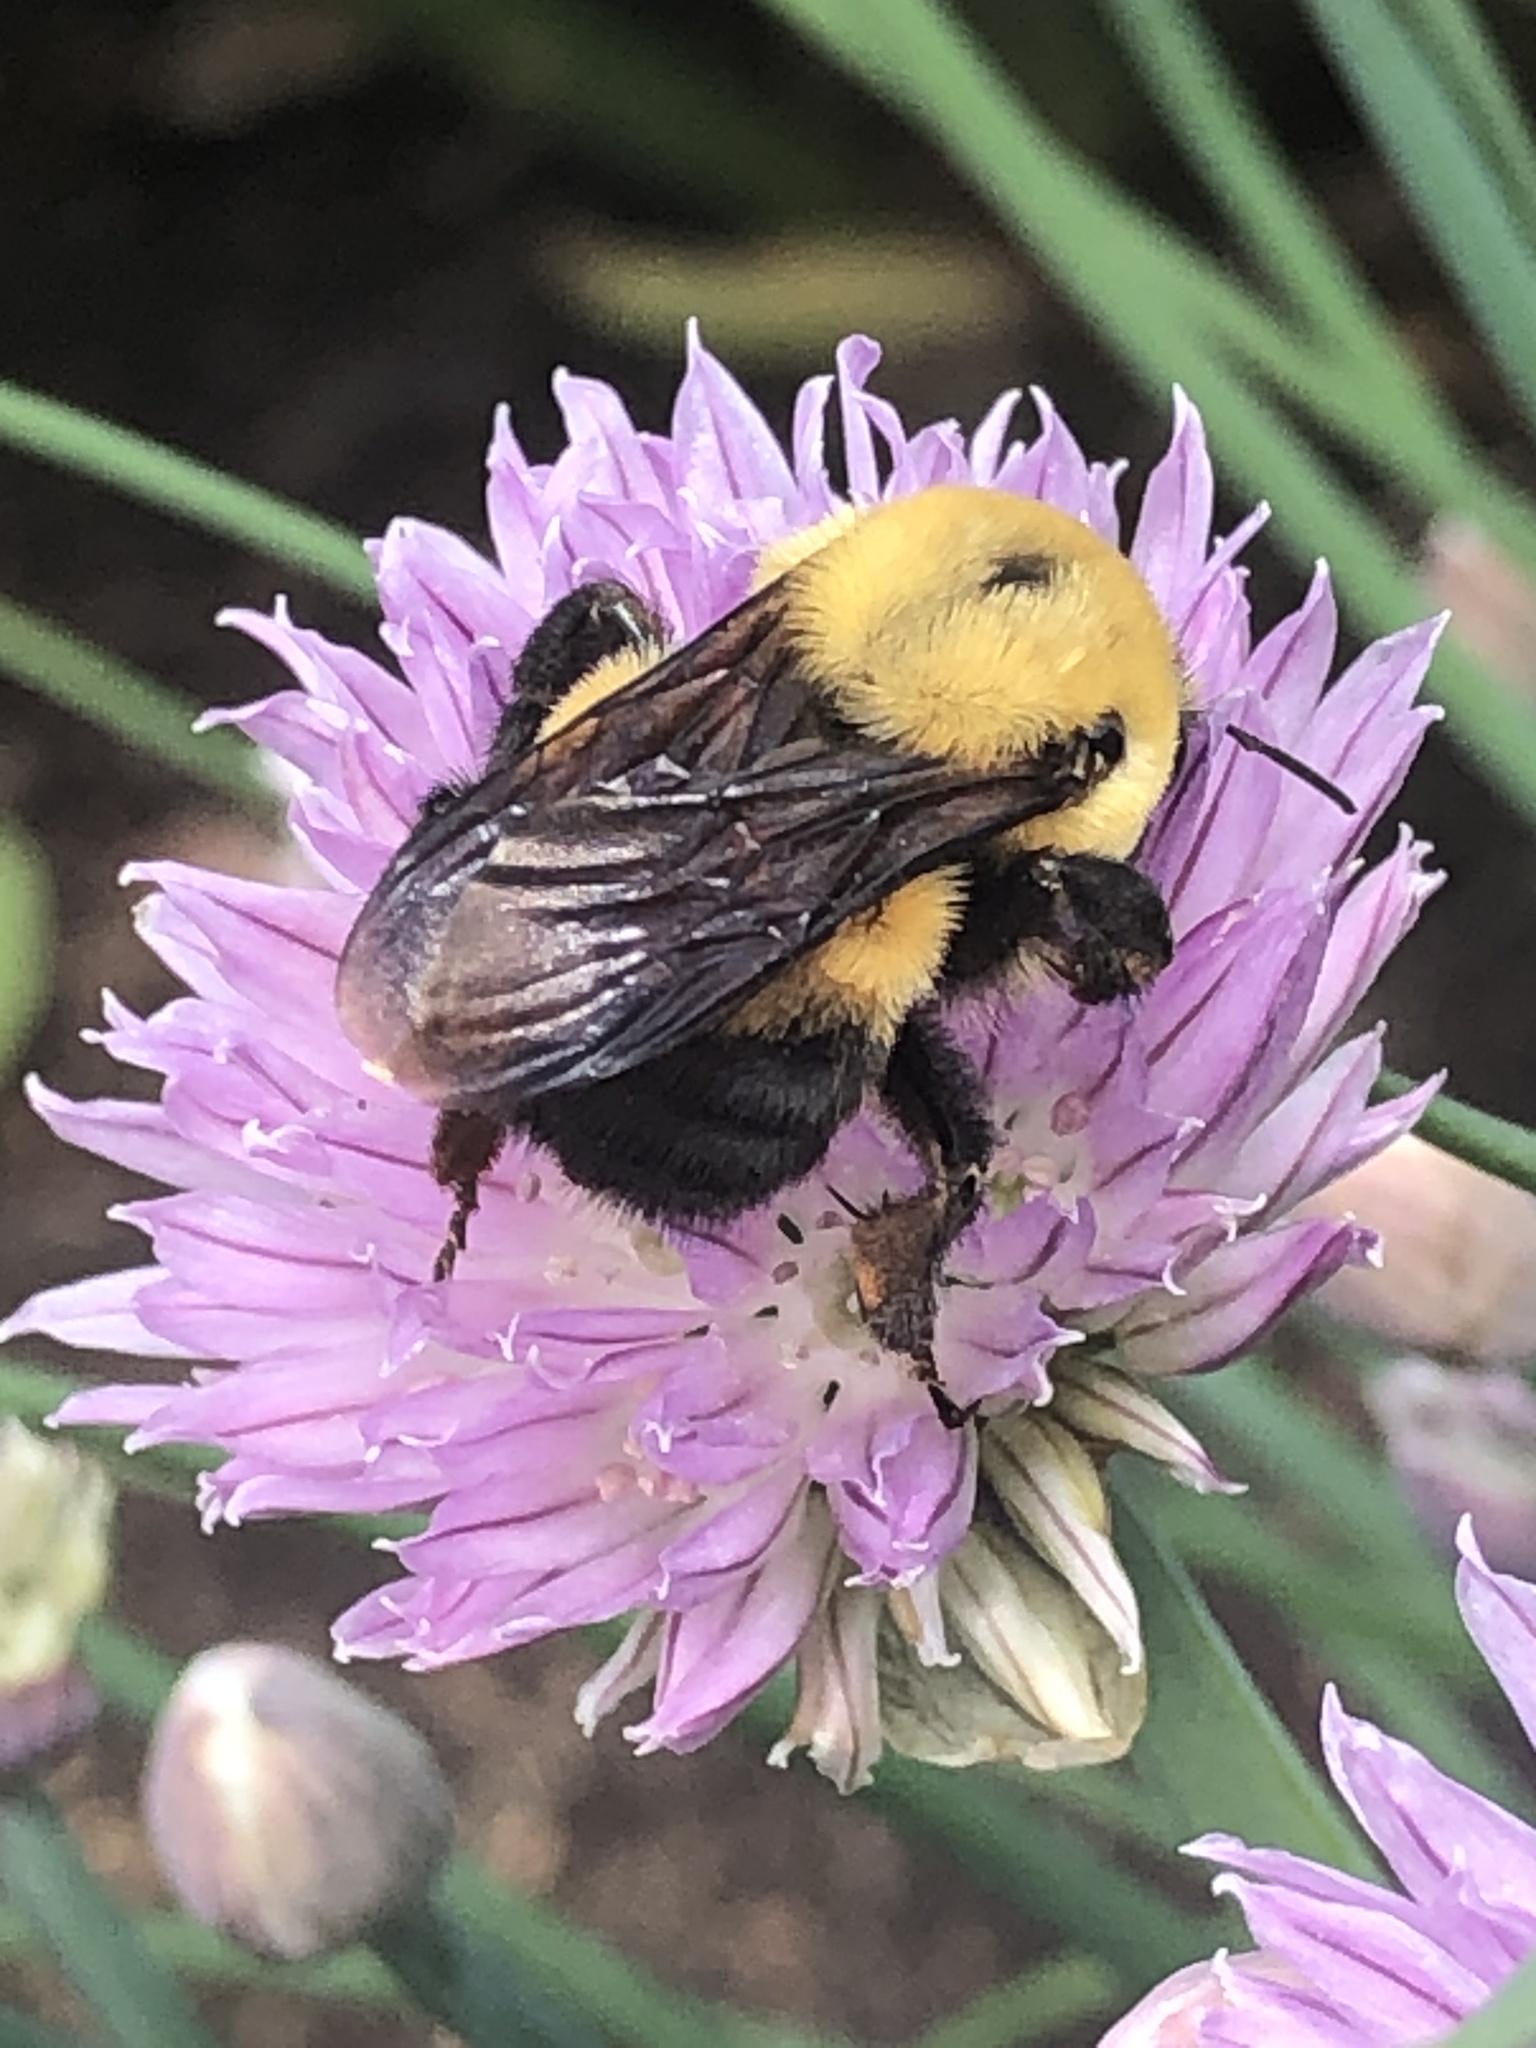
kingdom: Animalia
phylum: Arthropoda
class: Insecta
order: Hymenoptera
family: Apidae
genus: Bombus
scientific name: Bombus griseocollis
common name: Brown-belted bumble bee
